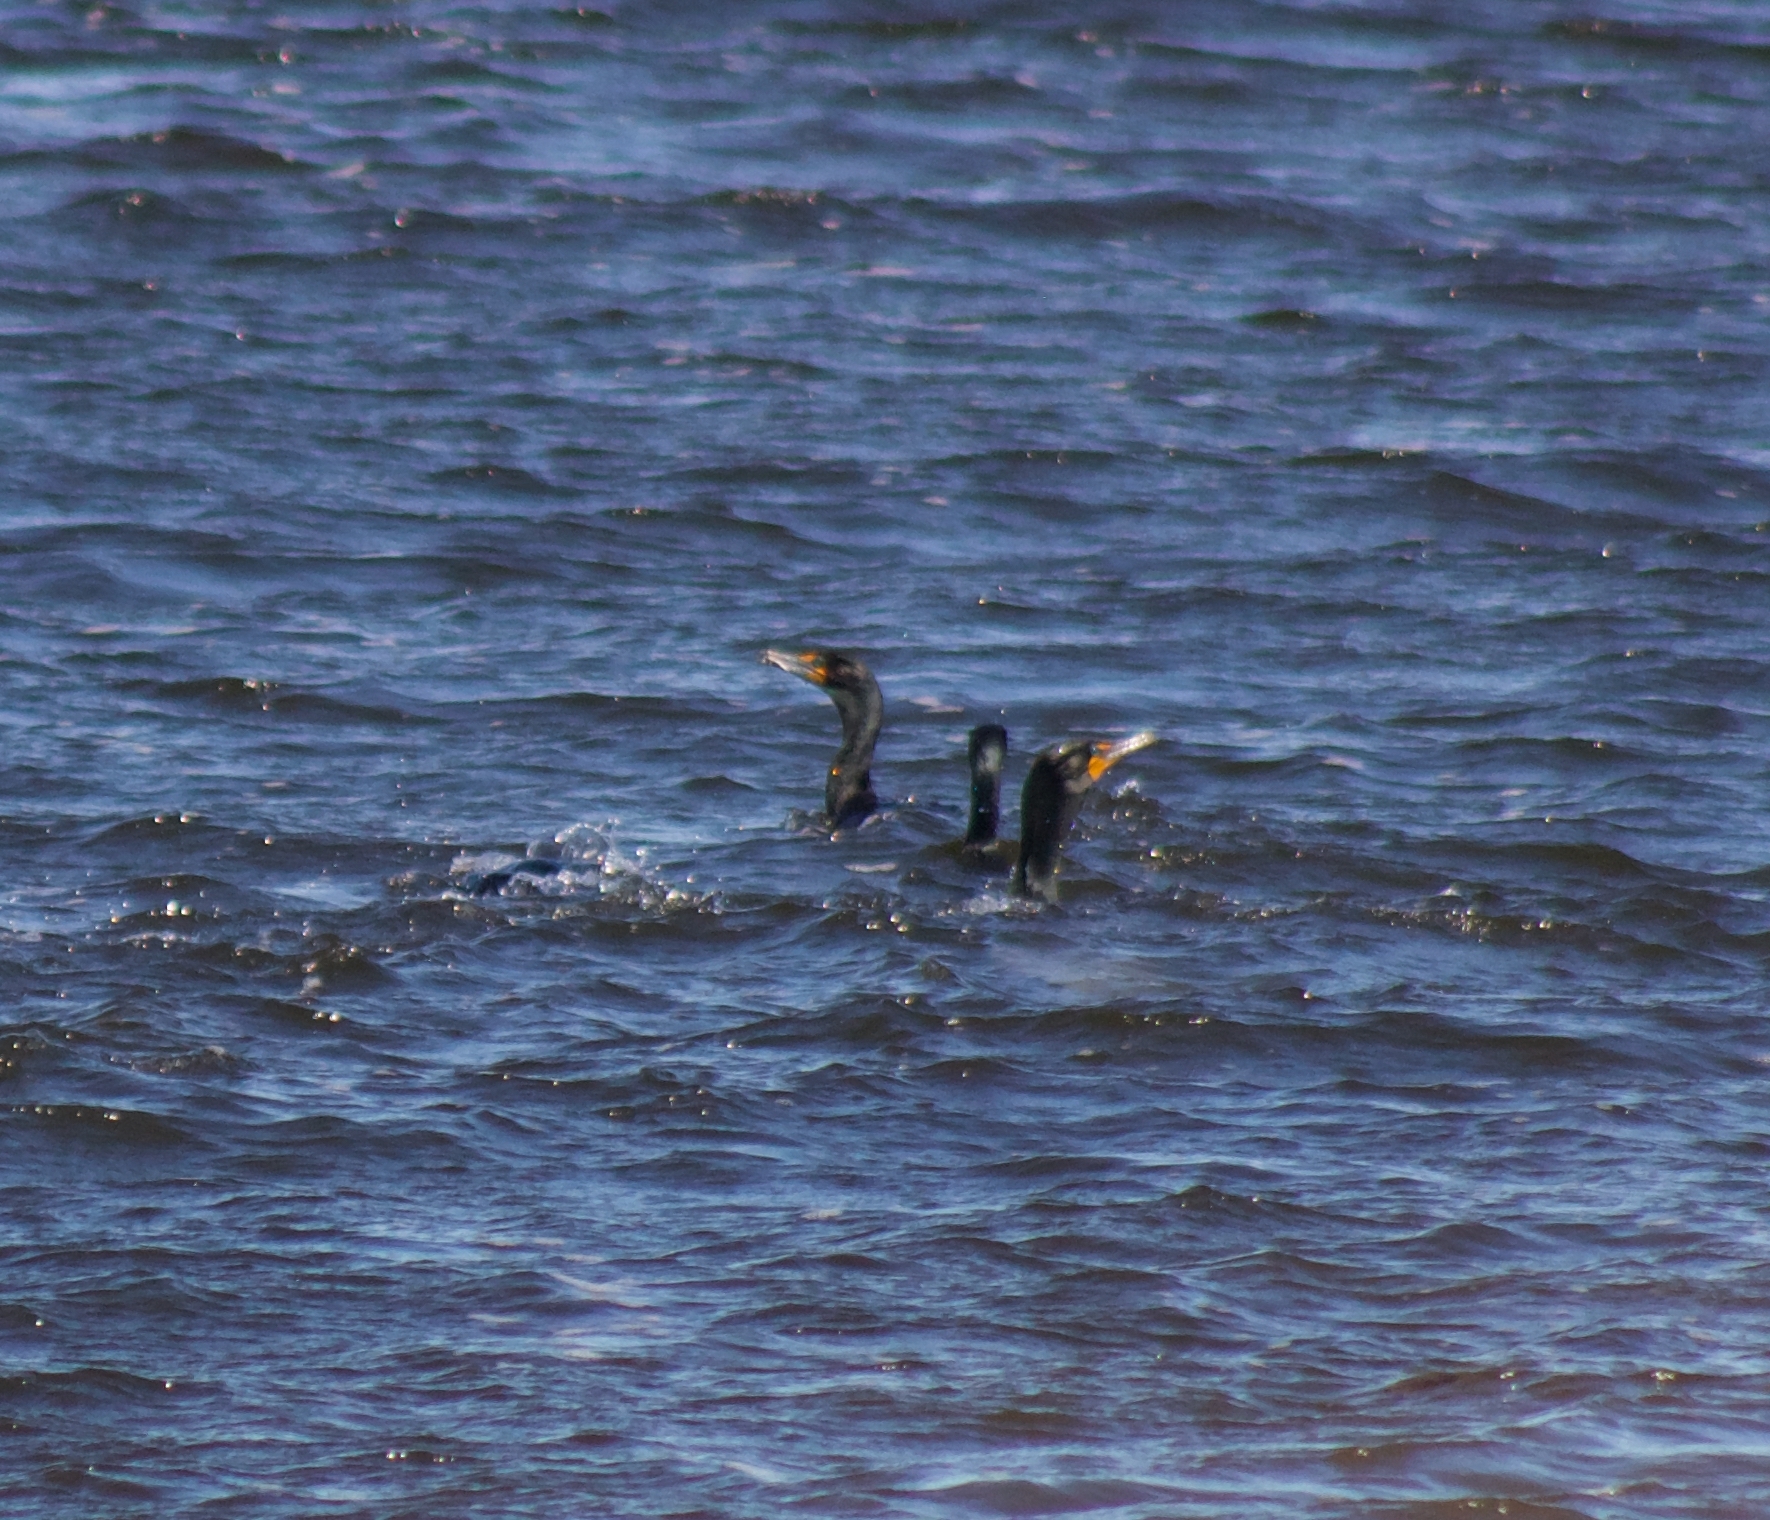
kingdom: Animalia
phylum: Chordata
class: Aves
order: Suliformes
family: Phalacrocoracidae
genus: Phalacrocorax
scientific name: Phalacrocorax auritus
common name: Double-crested cormorant
